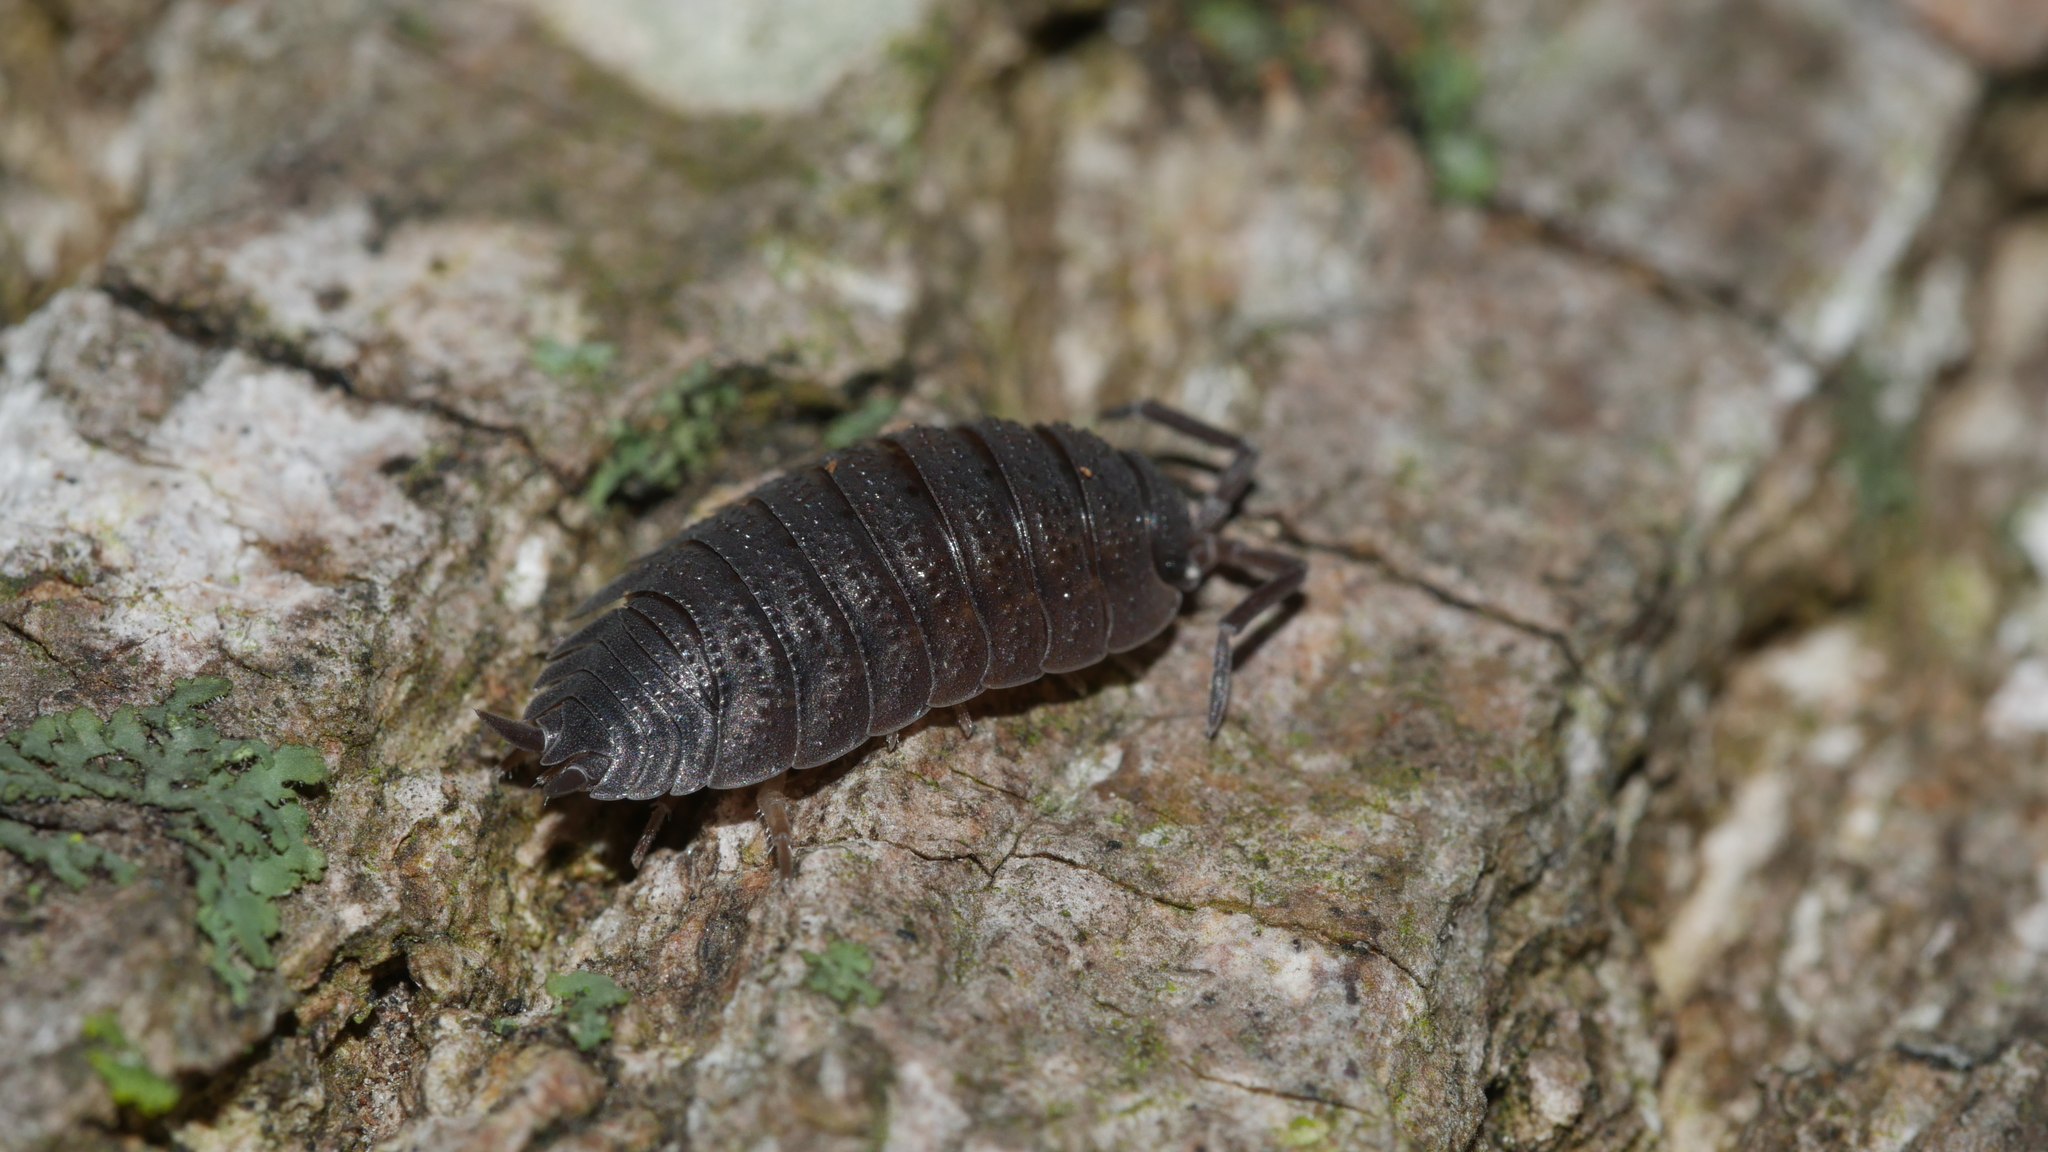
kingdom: Animalia
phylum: Arthropoda
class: Malacostraca
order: Isopoda
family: Porcellionidae
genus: Porcellio
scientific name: Porcellio scaber
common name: Common rough woodlouse
